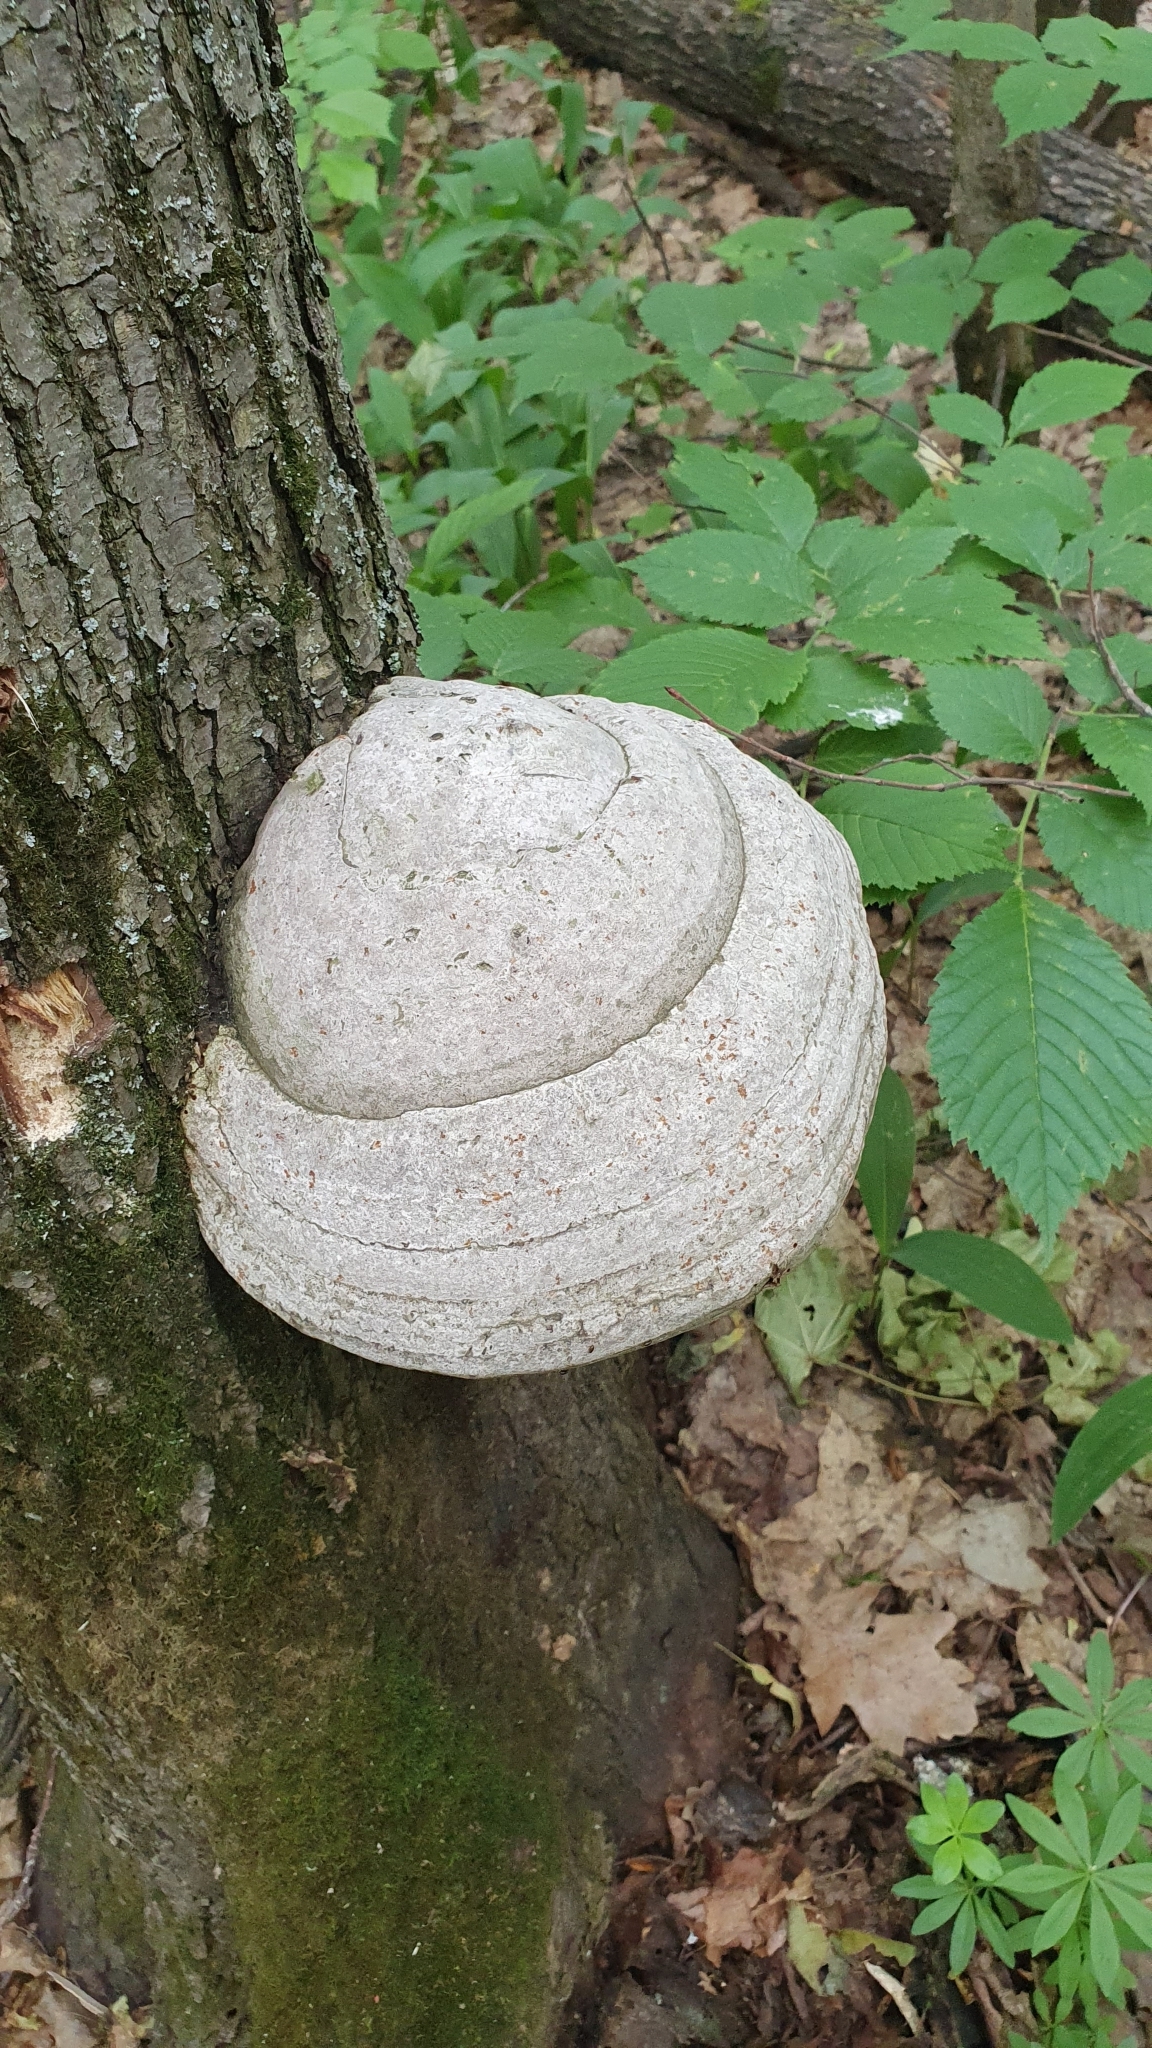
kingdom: Fungi
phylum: Basidiomycota
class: Agaricomycetes
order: Polyporales
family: Polyporaceae
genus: Fomes
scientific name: Fomes fomentarius
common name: Hoof fungus
